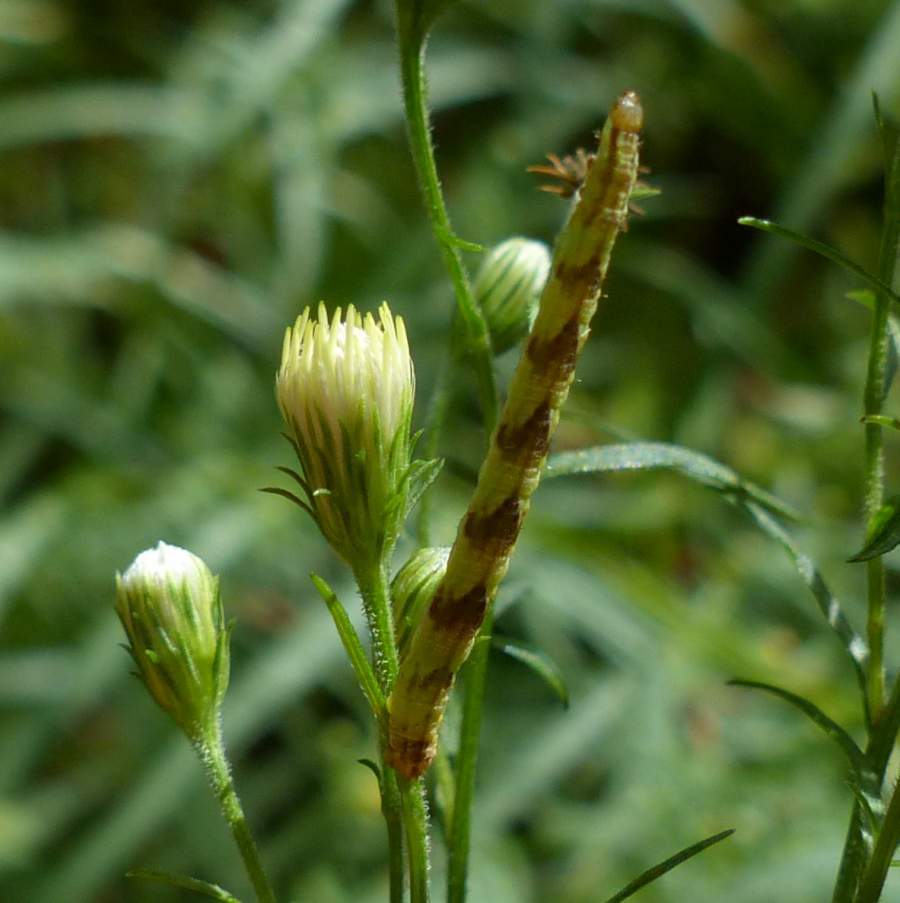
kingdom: Animalia
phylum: Arthropoda
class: Insecta
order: Lepidoptera
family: Geometridae
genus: Eupithecia
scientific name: Eupithecia miserulata
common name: Common eupithecia
